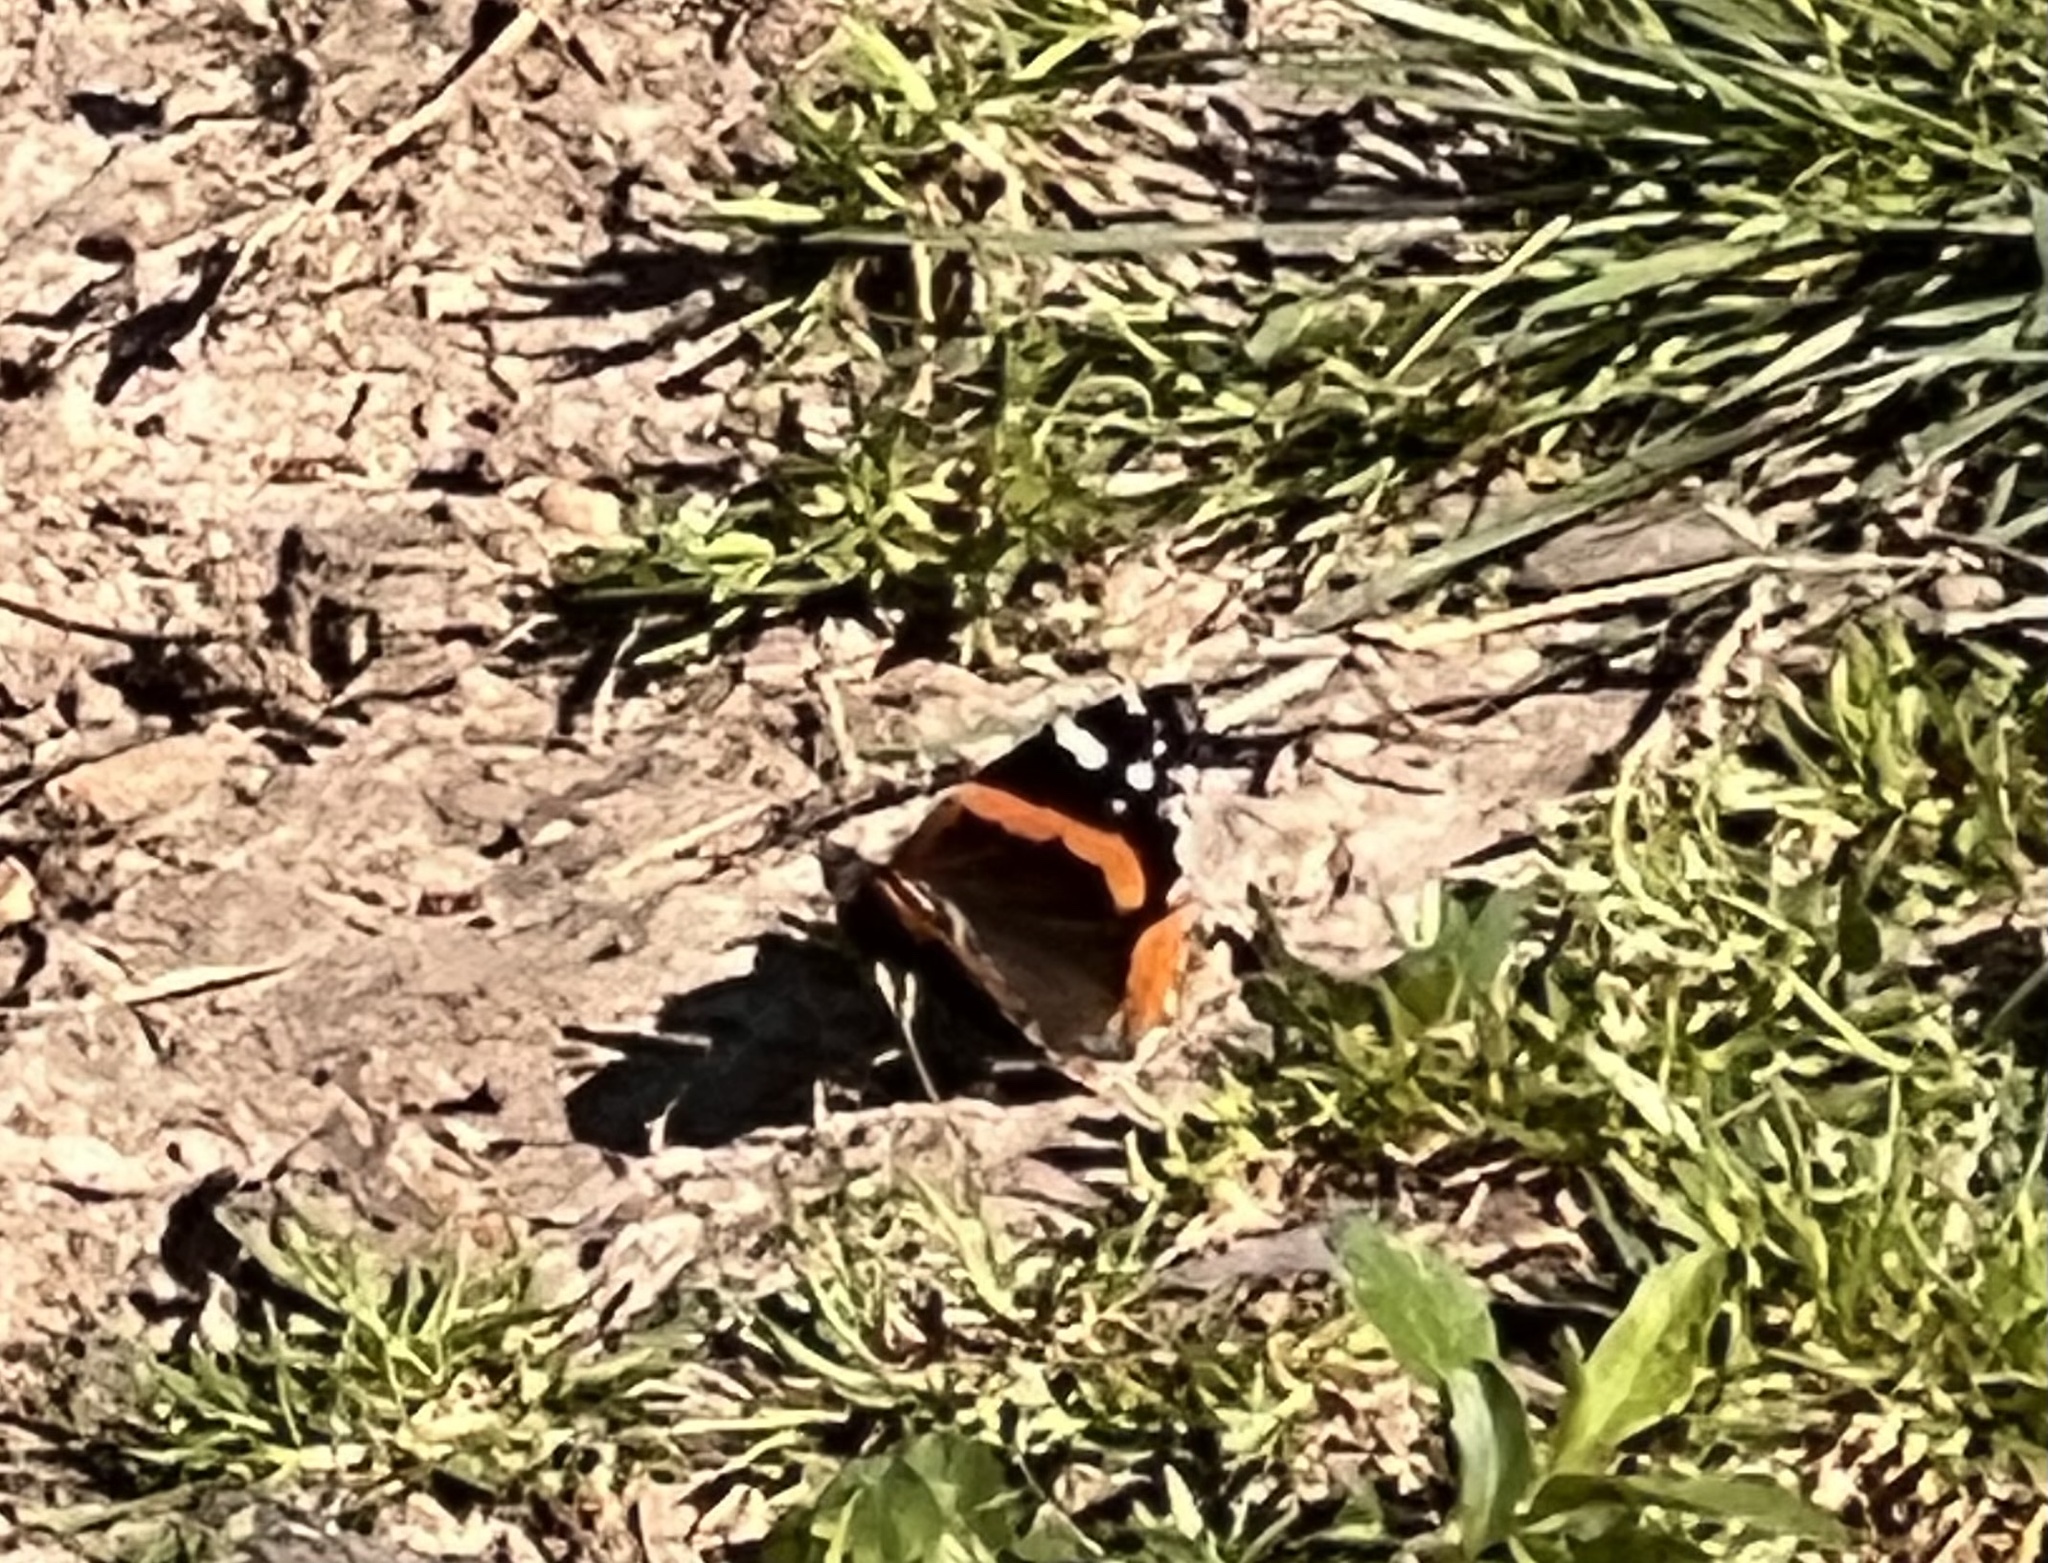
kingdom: Animalia
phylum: Arthropoda
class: Insecta
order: Lepidoptera
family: Nymphalidae
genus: Vanessa
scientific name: Vanessa atalanta
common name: Red admiral
